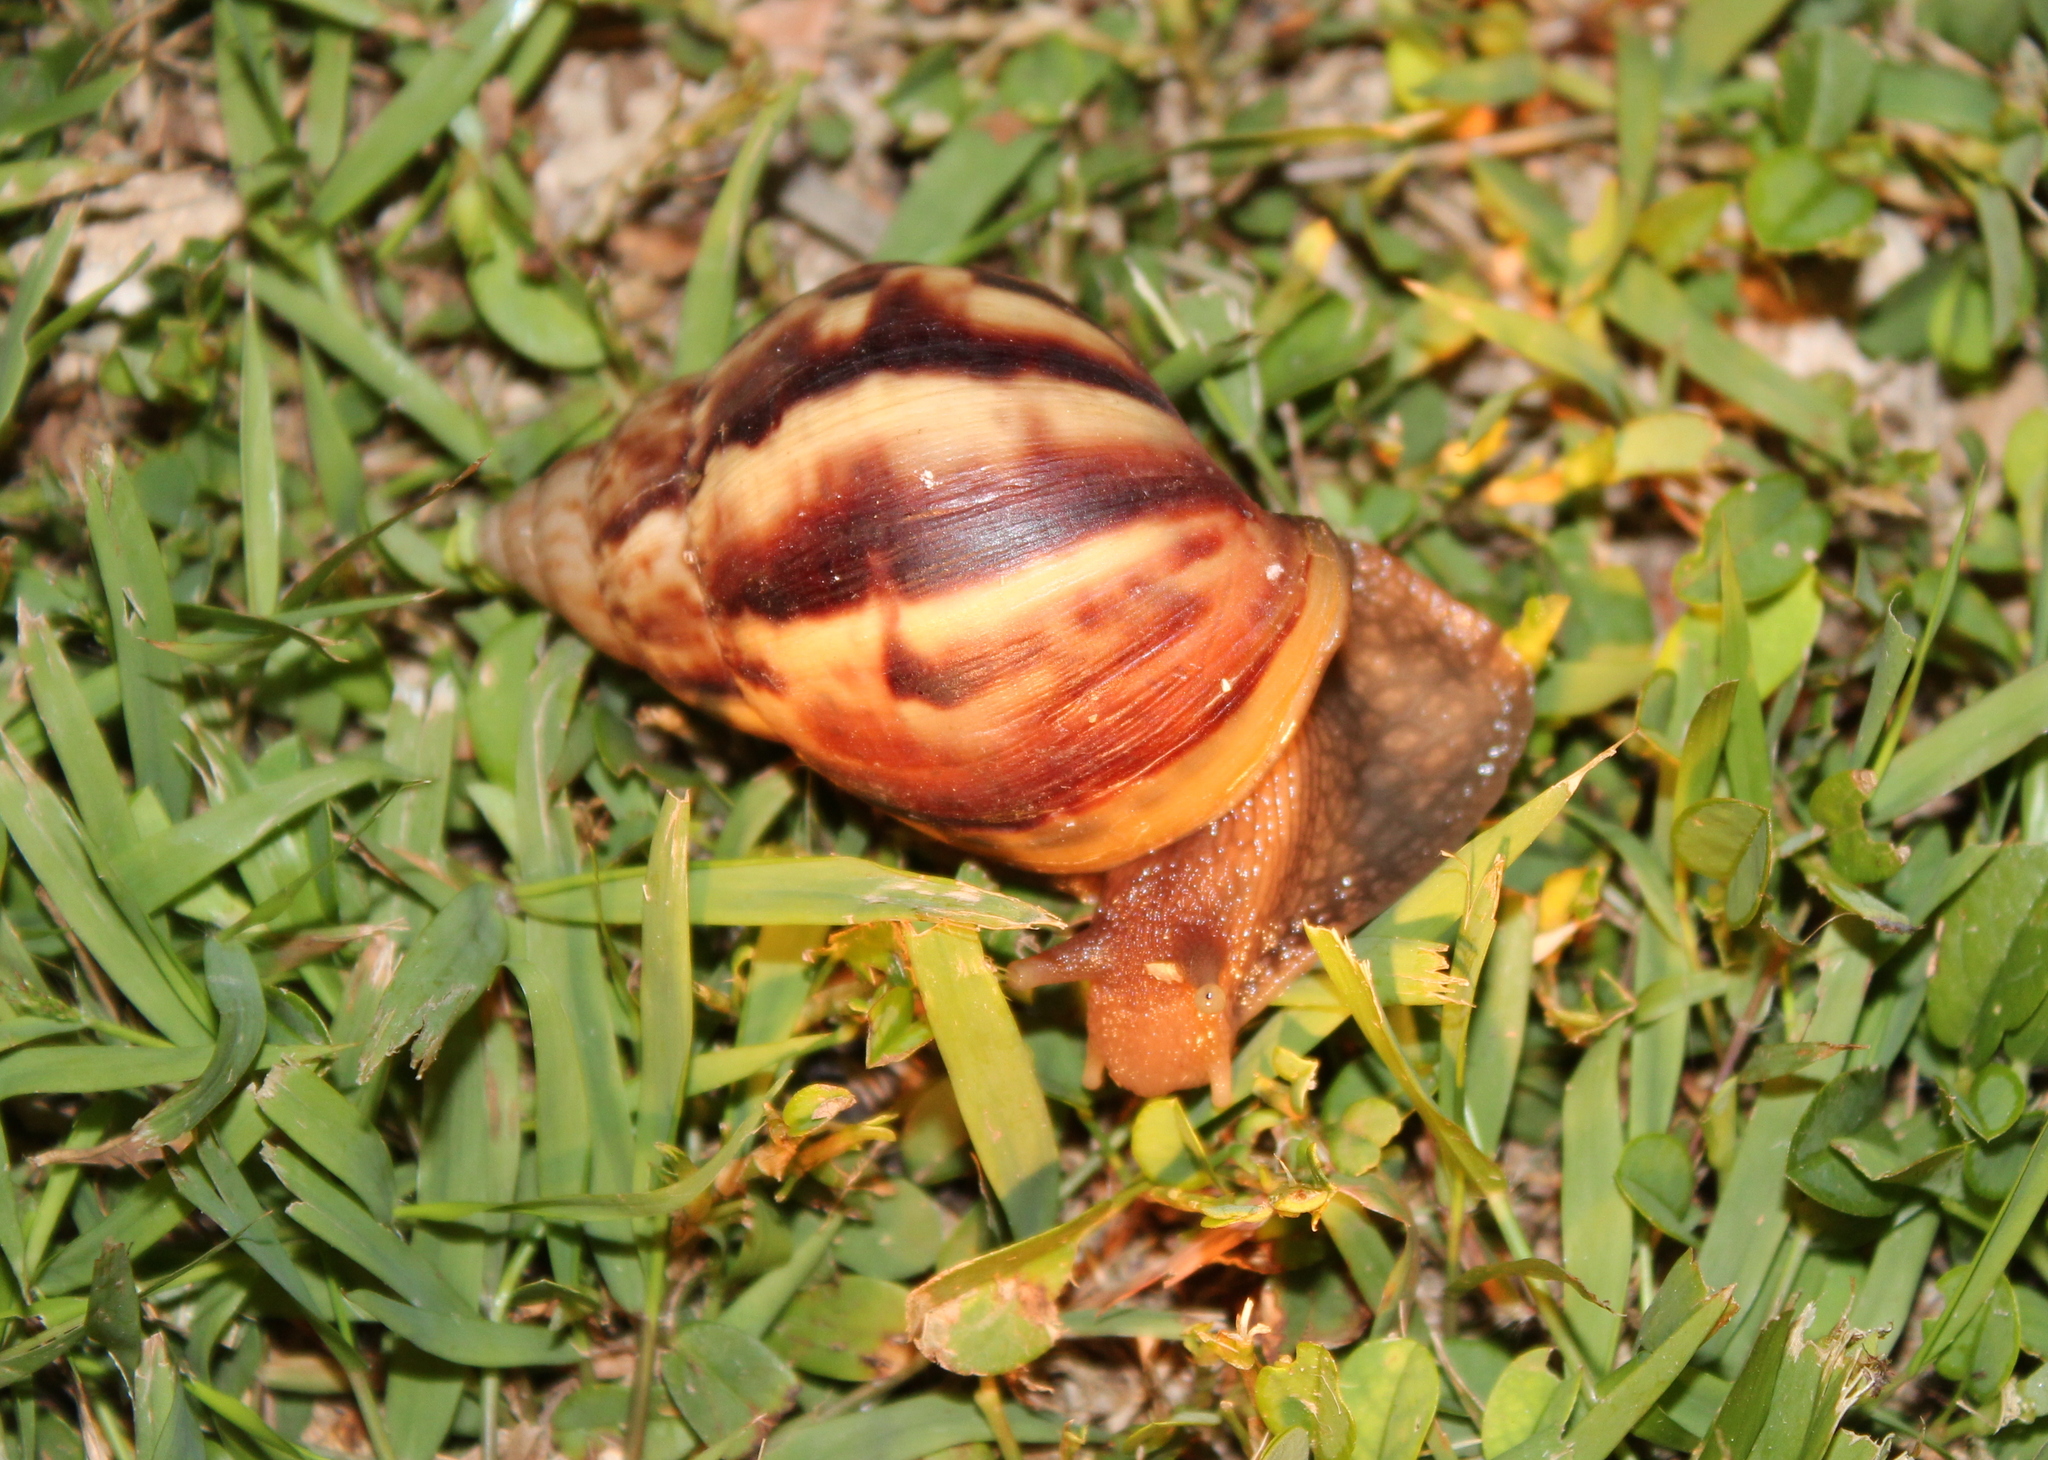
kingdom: Animalia
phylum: Mollusca
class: Gastropoda
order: Stylommatophora
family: Achatinidae
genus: Lissachatina
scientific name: Lissachatina fulica
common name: Giant african snail
